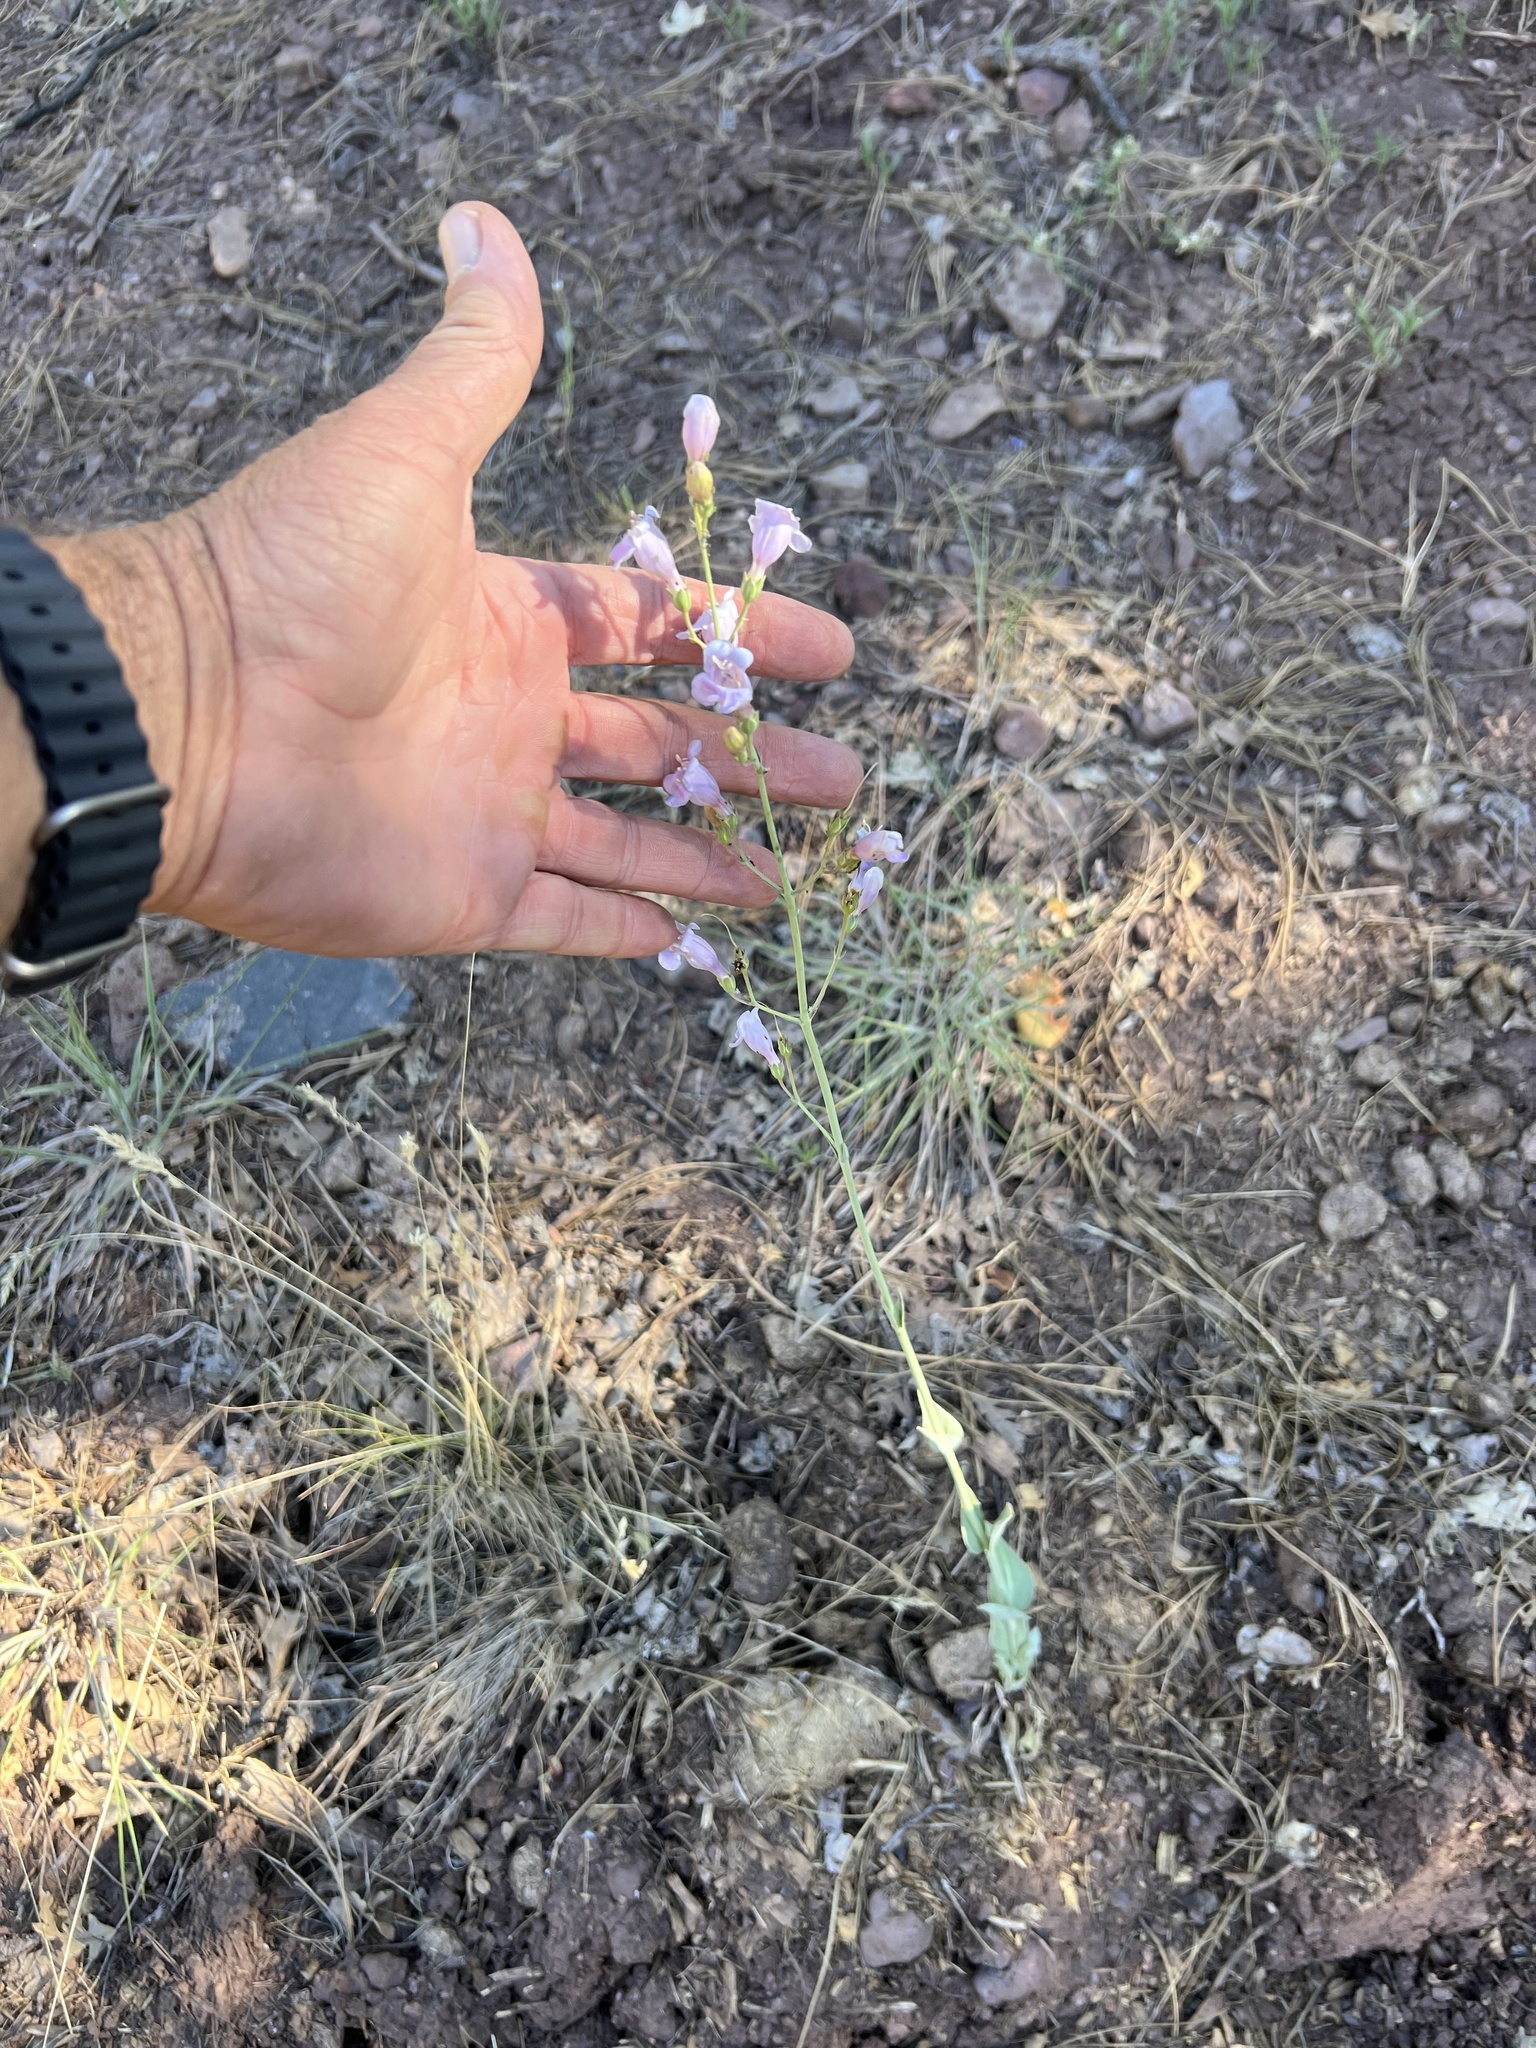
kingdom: Plantae
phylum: Tracheophyta
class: Magnoliopsida
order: Lamiales
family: Plantaginaceae
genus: Penstemon
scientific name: Penstemon linarioides
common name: Siler's penstemon
